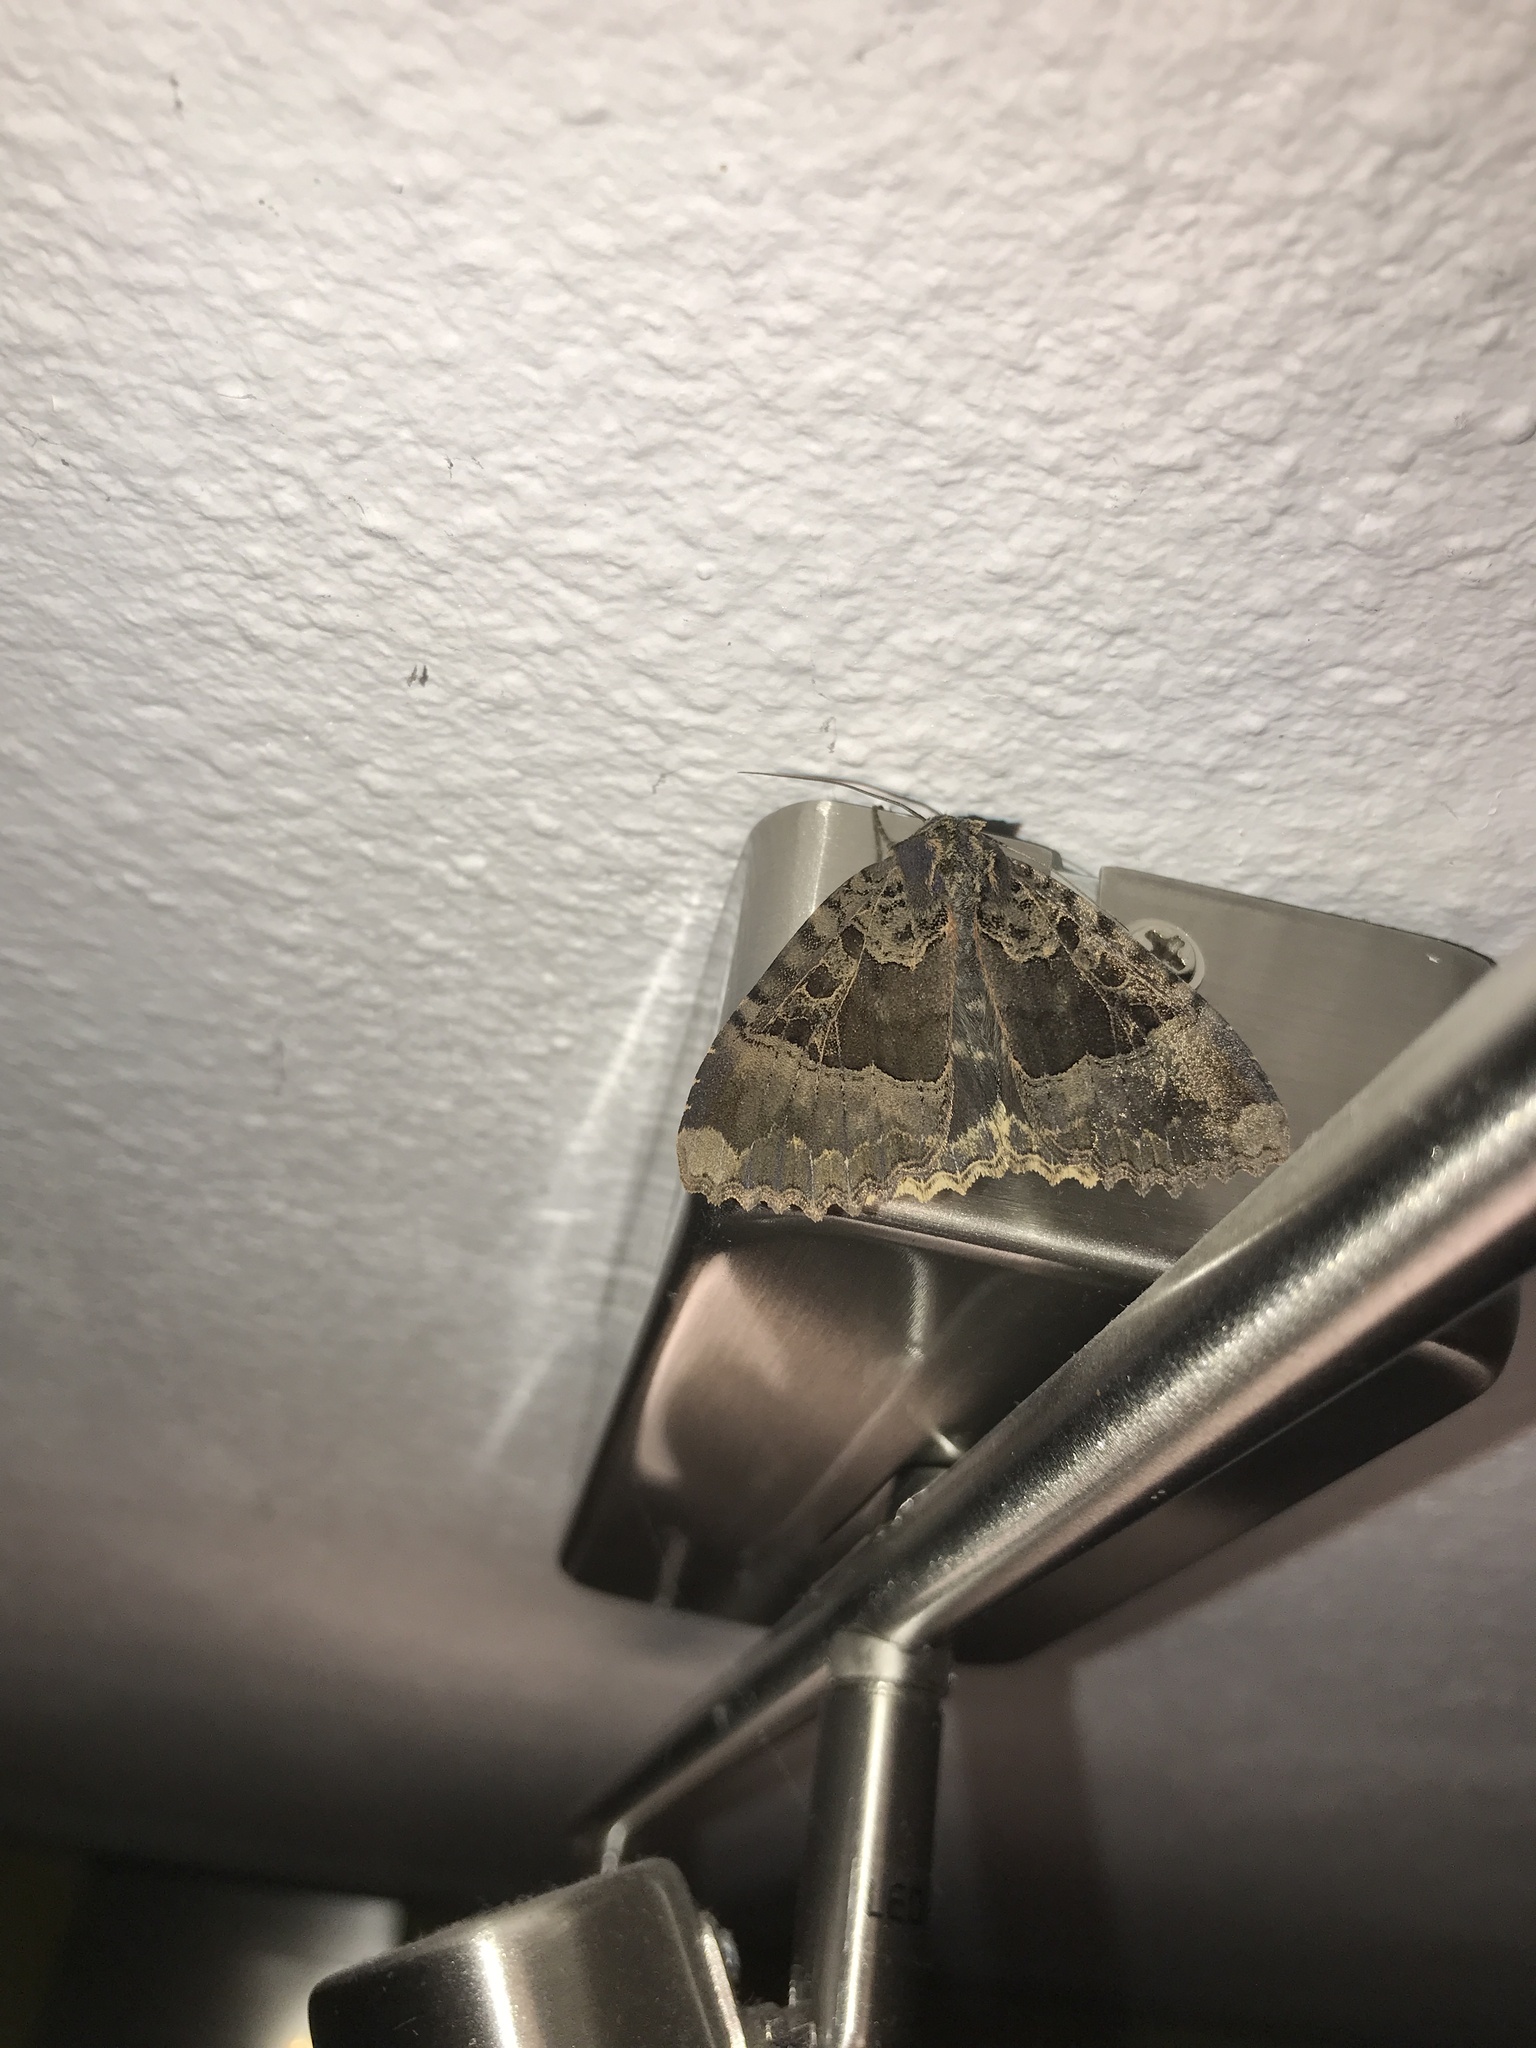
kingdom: Animalia
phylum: Arthropoda
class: Insecta
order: Lepidoptera
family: Noctuidae
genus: Mormo
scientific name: Mormo maura
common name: Old lady
